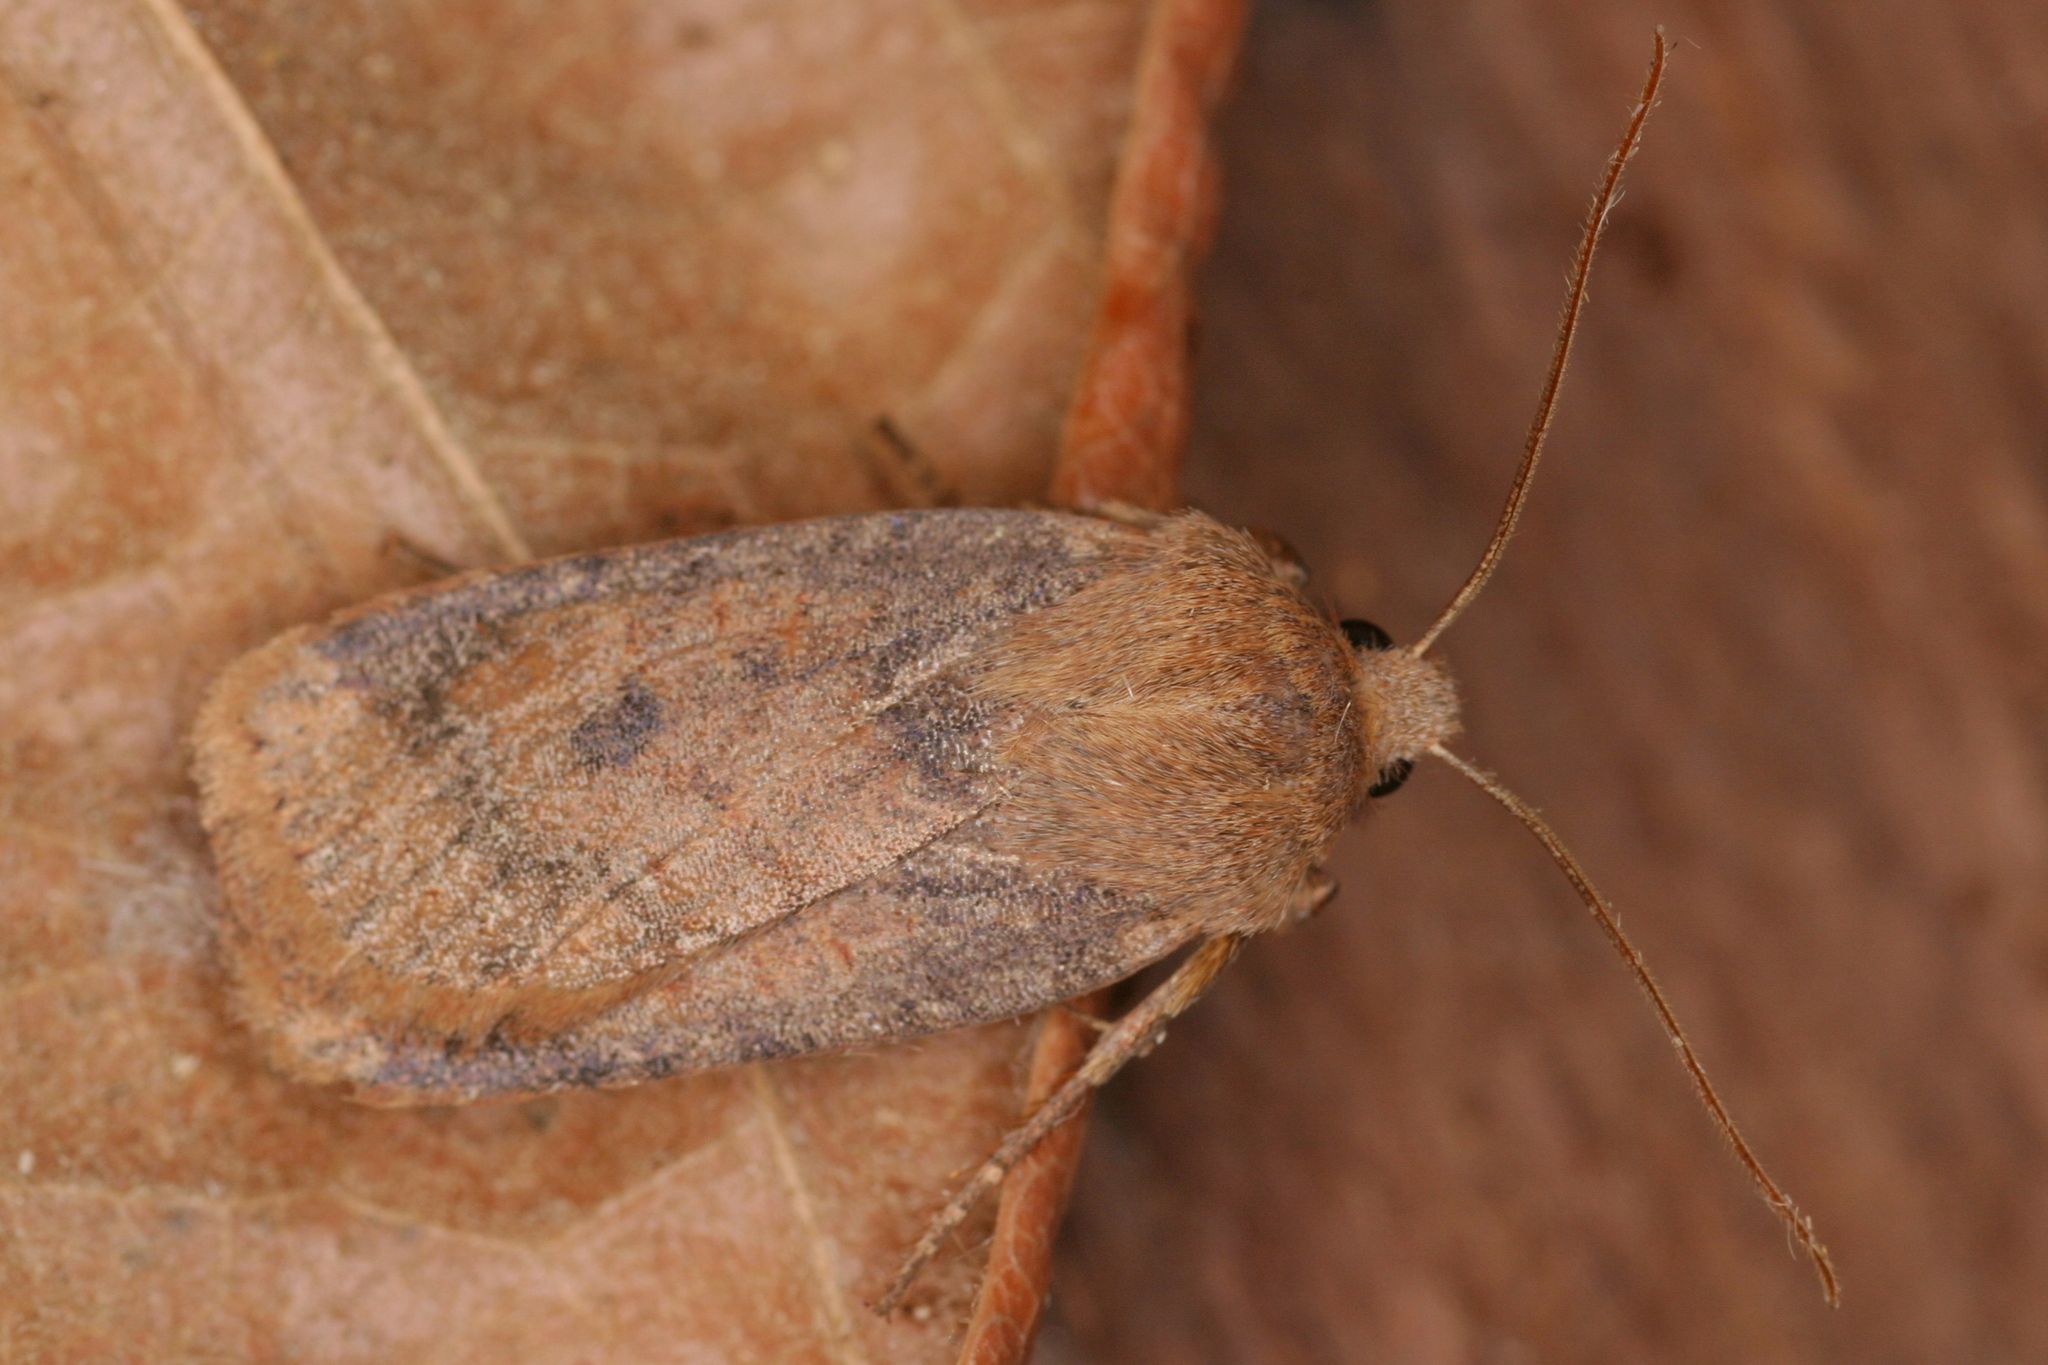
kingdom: Animalia
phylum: Arthropoda
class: Insecta
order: Lepidoptera
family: Noctuidae
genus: Conistra
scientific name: Conistra vaccinii
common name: Chestnut
